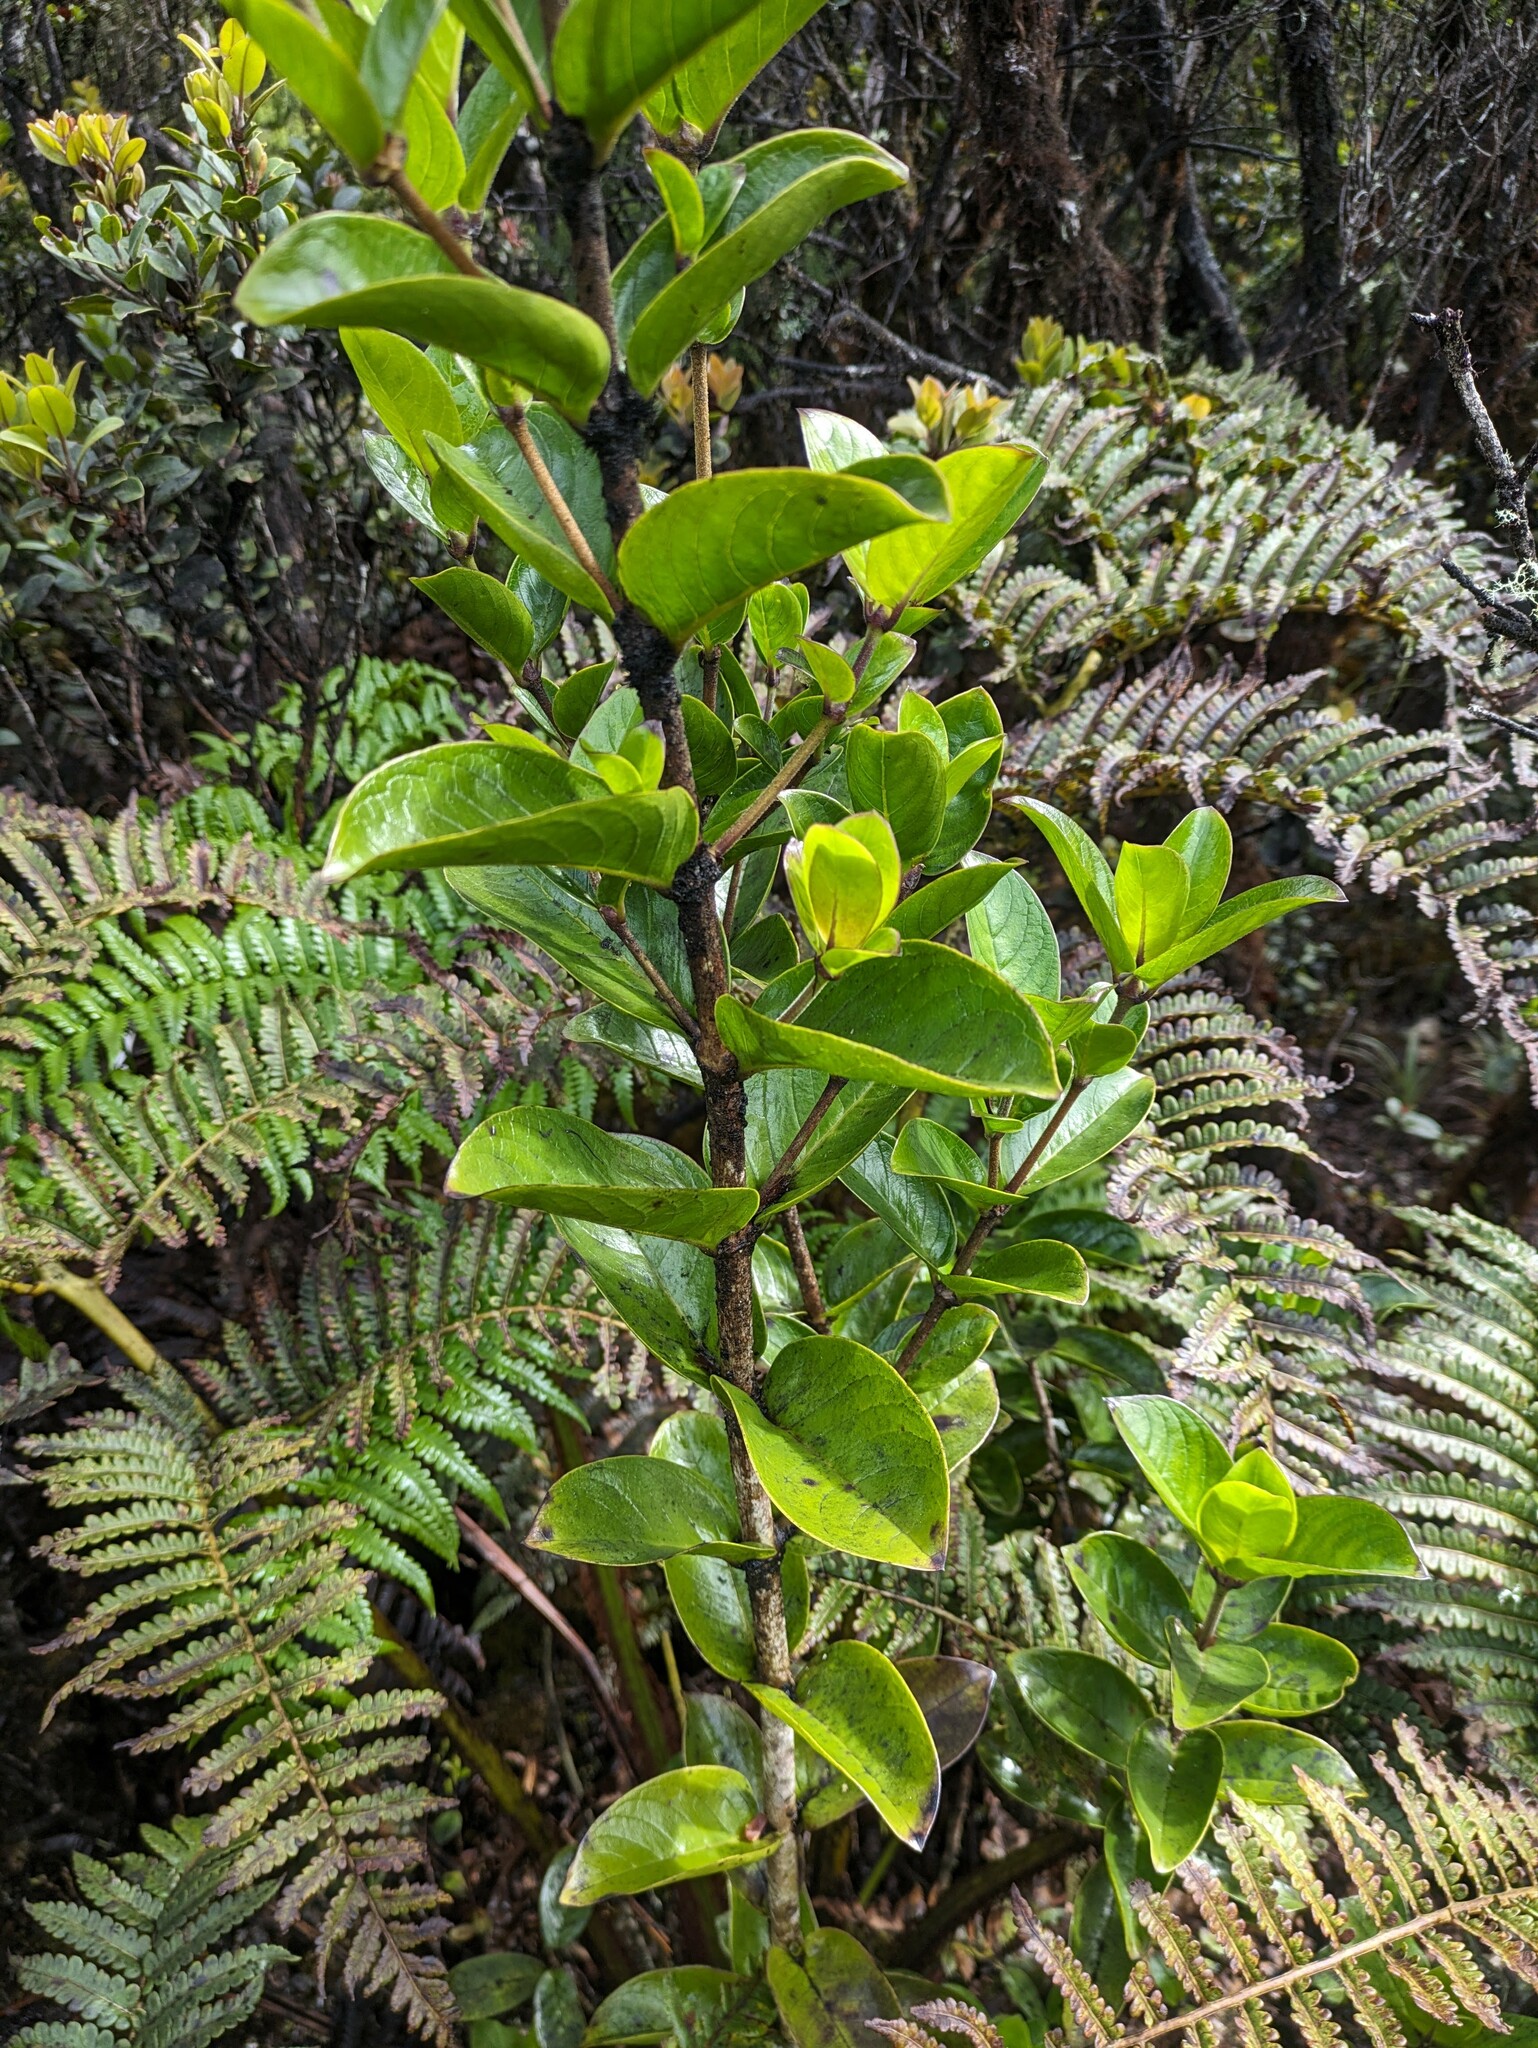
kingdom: Plantae
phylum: Tracheophyta
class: Magnoliopsida
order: Gentianales
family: Rubiaceae
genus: Kadua
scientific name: Kadua affinis
